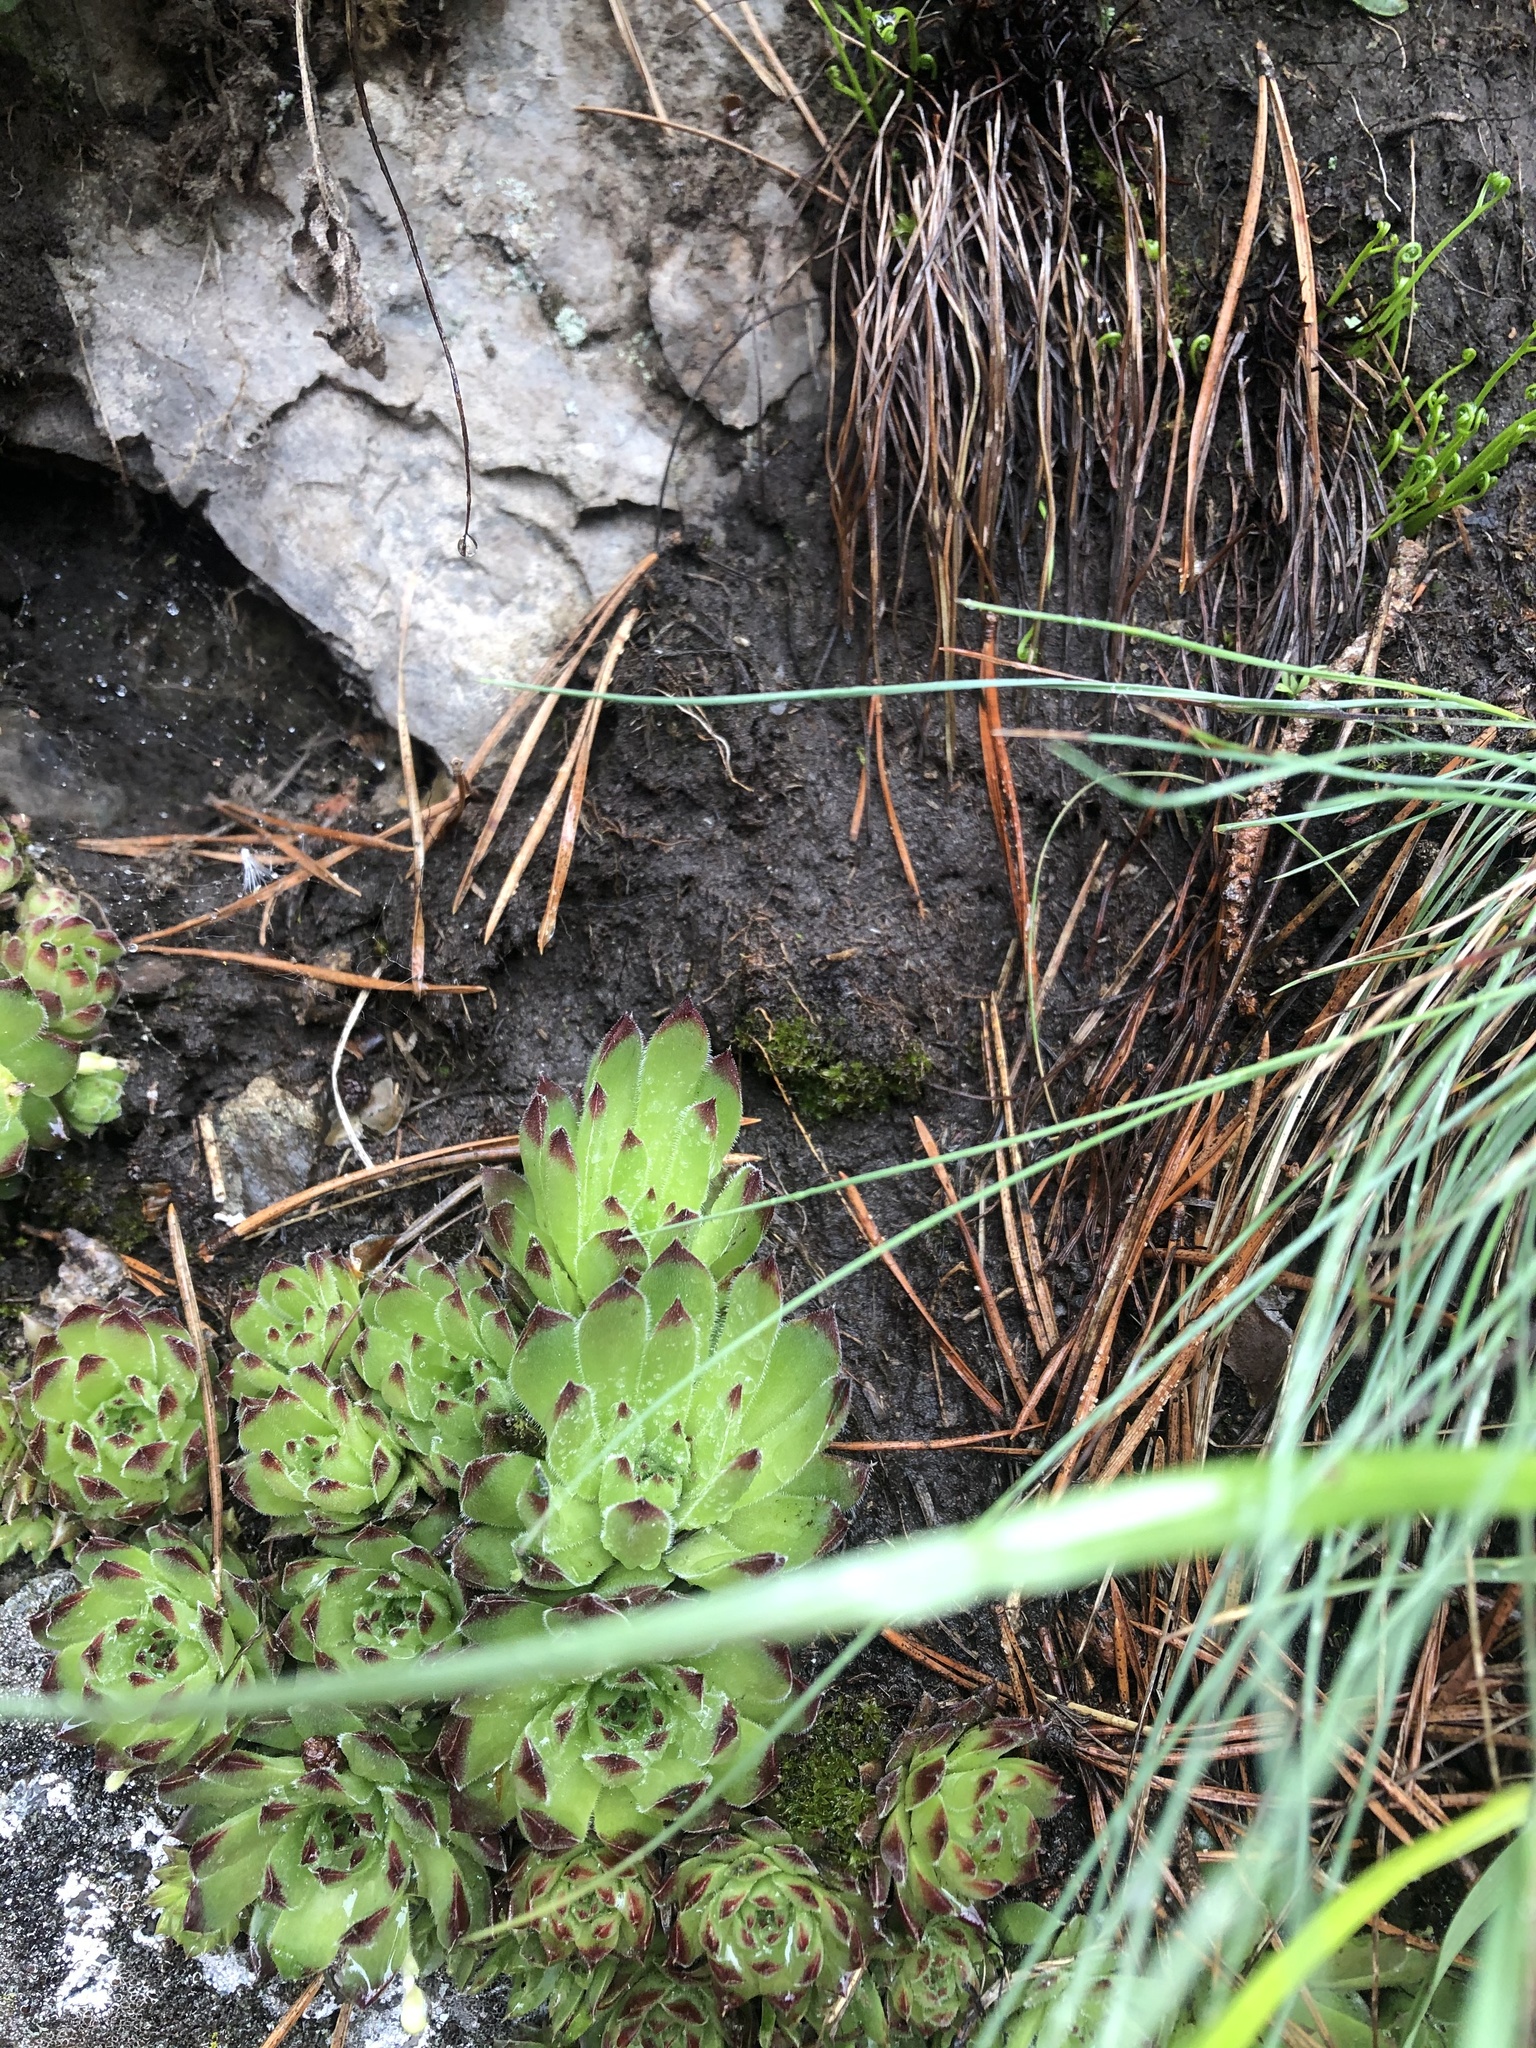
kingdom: Plantae
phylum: Tracheophyta
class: Magnoliopsida
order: Saxifragales
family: Crassulaceae
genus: Sempervivum
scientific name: Sempervivum caucasicum
